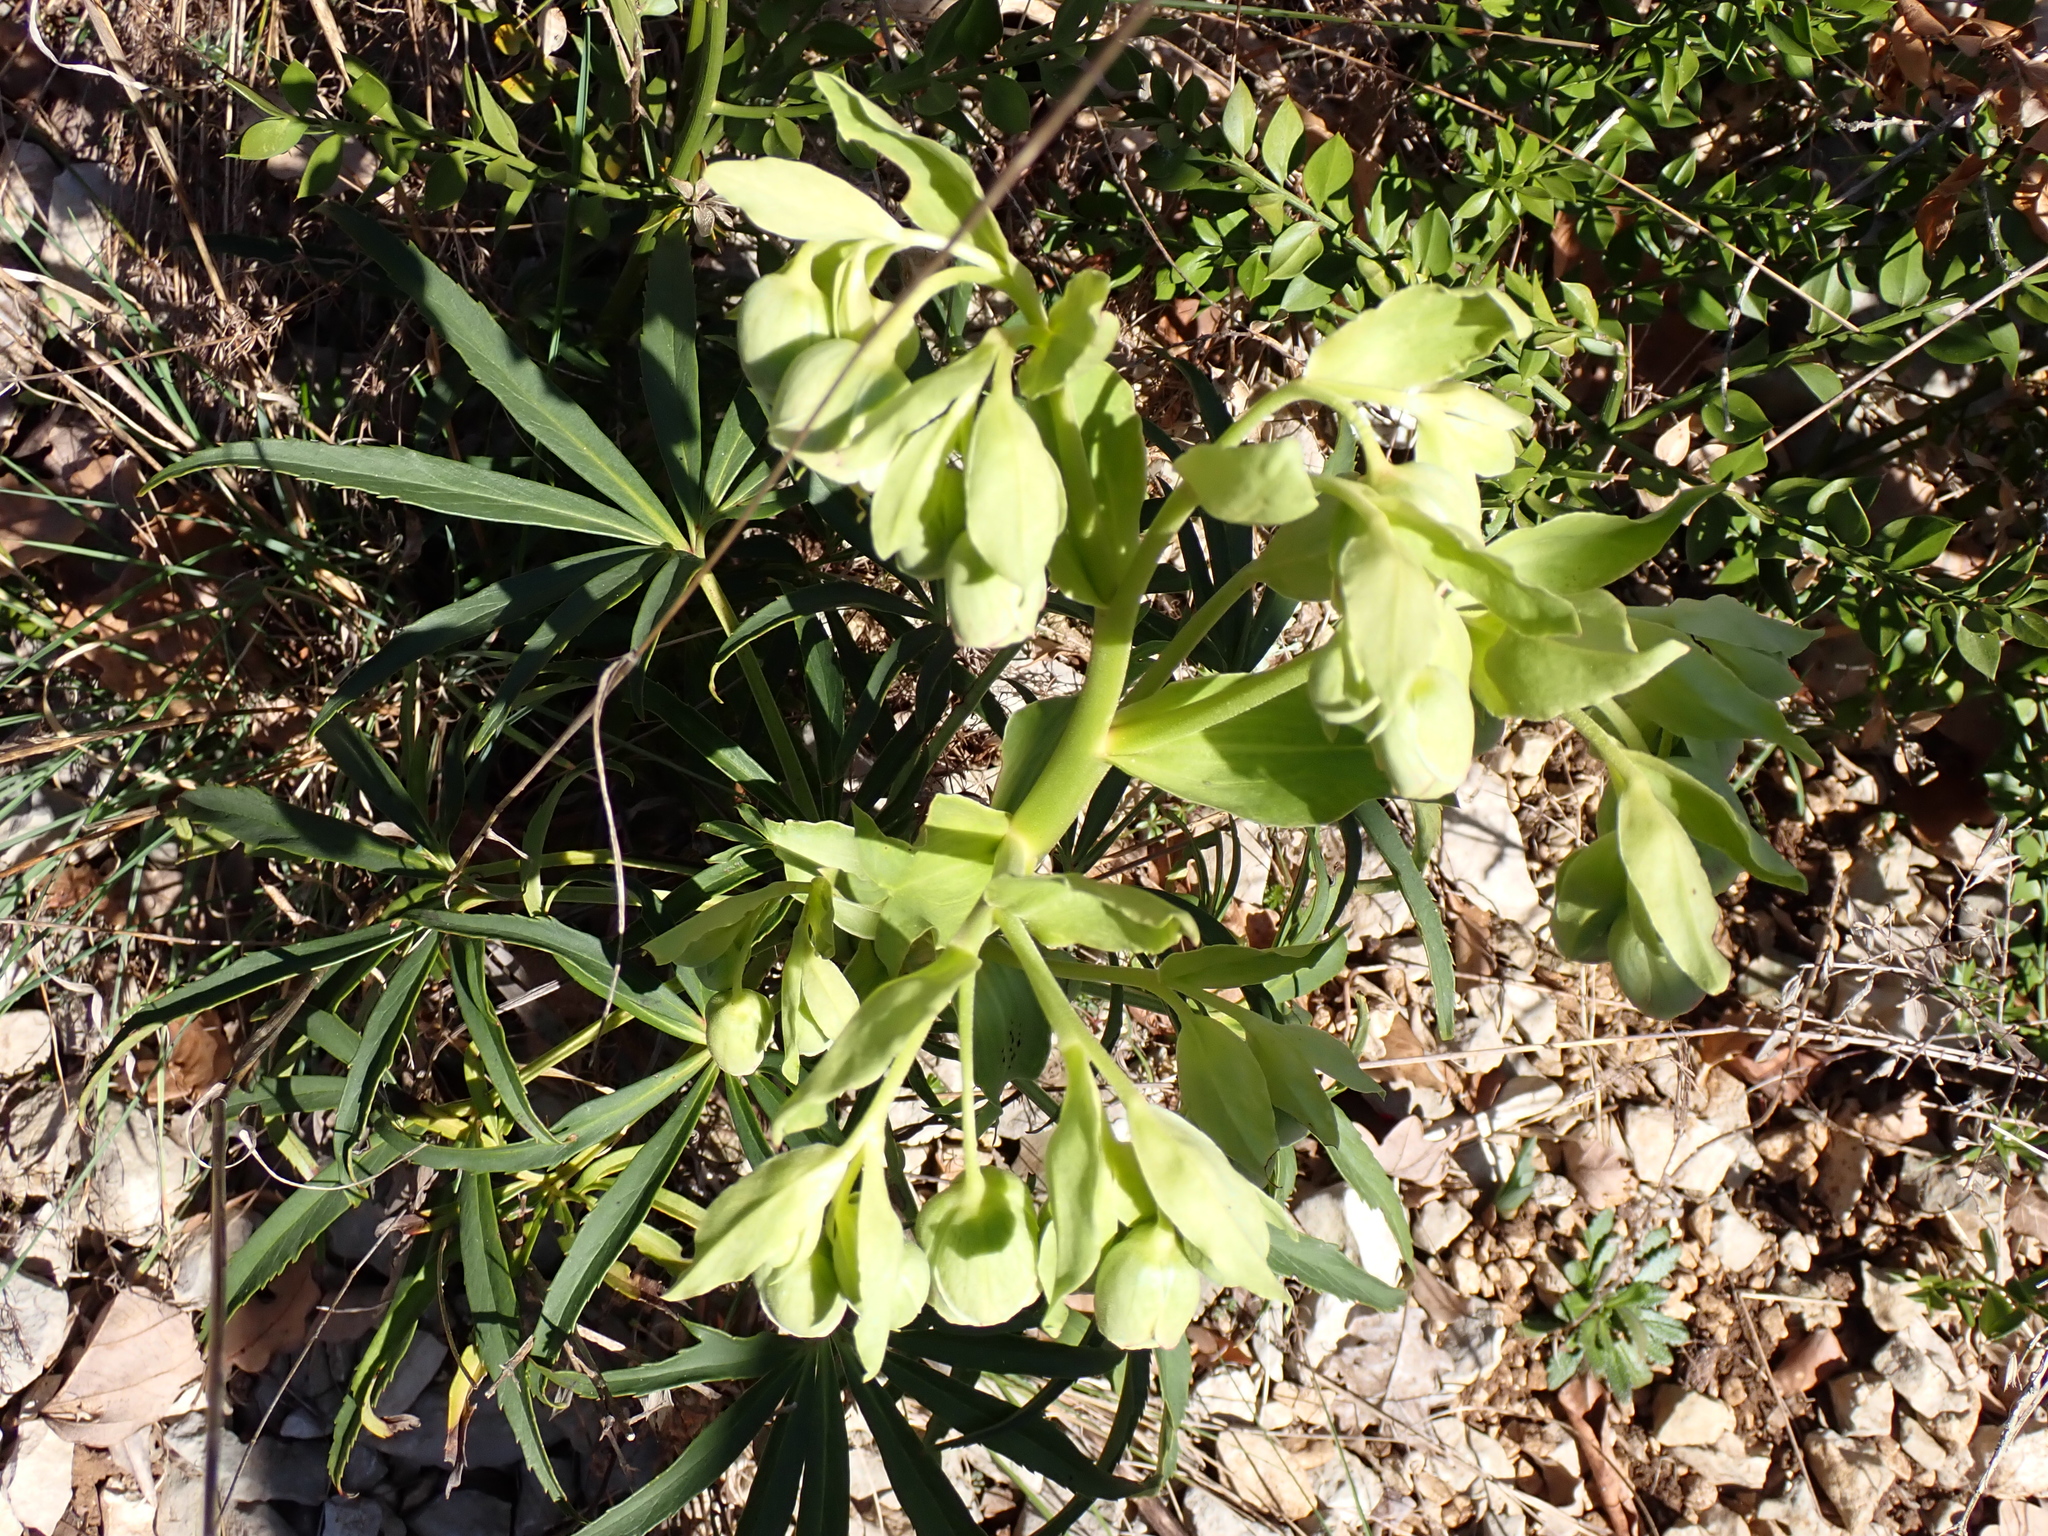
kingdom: Plantae
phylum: Tracheophyta
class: Magnoliopsida
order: Ranunculales
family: Ranunculaceae
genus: Helleborus
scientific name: Helleborus foetidus
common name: Stinking hellebore
